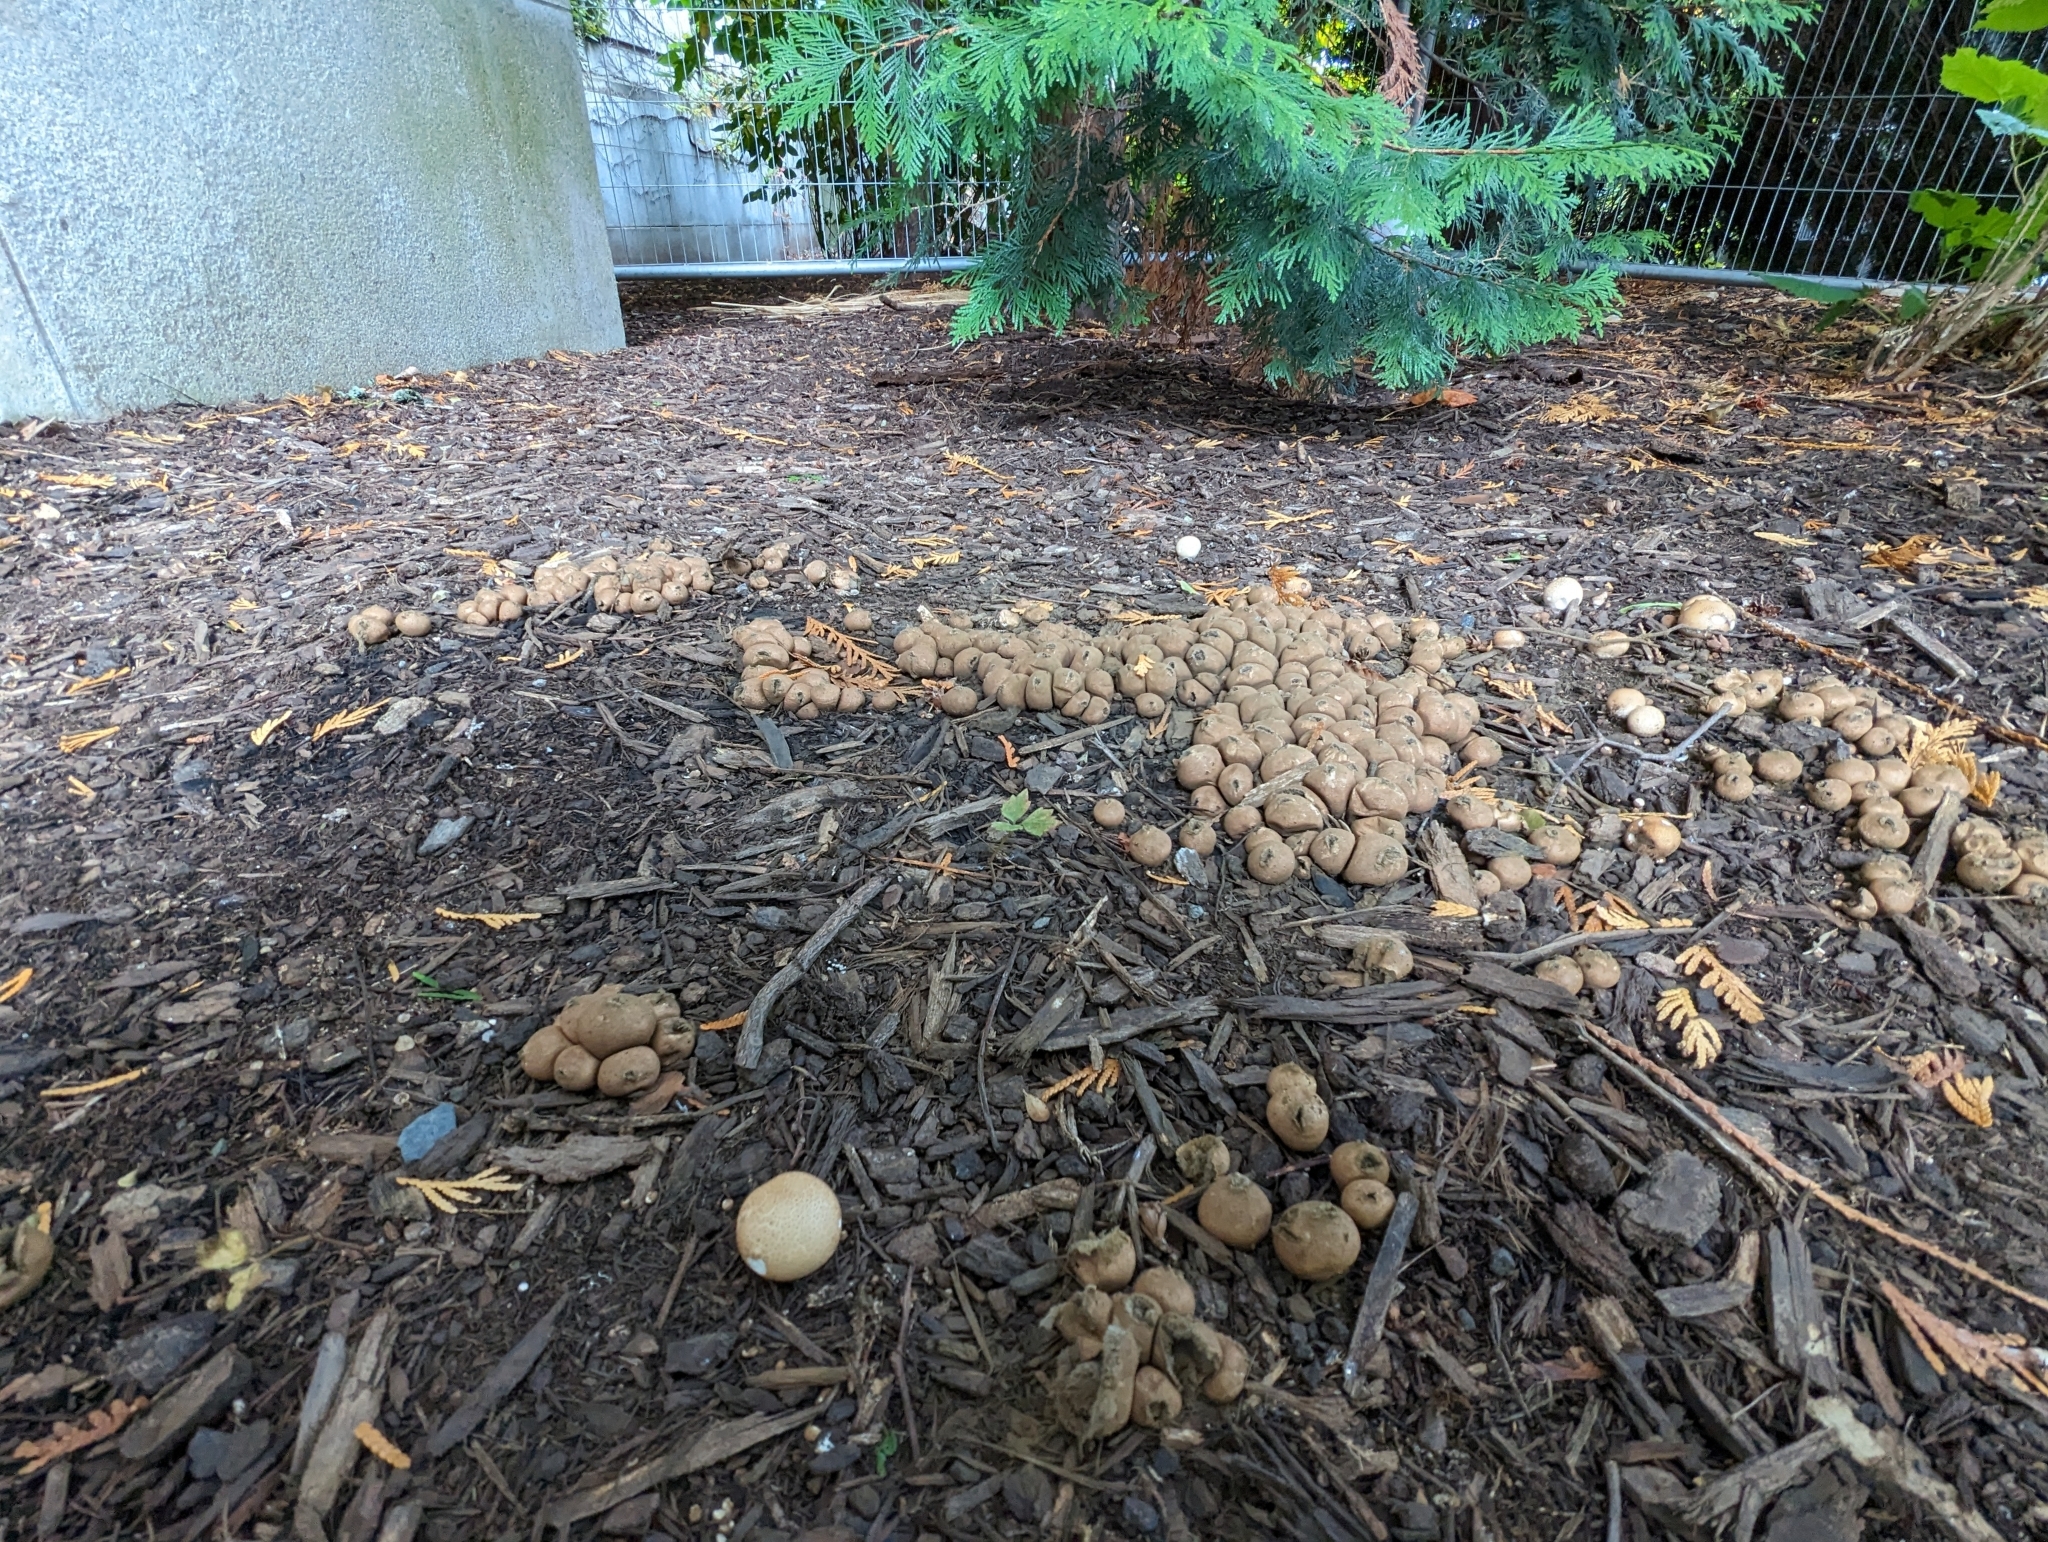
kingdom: Fungi
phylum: Basidiomycota
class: Agaricomycetes
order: Agaricales
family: Lycoperdaceae
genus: Apioperdon
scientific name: Apioperdon pyriforme
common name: Pear-shaped puffball
